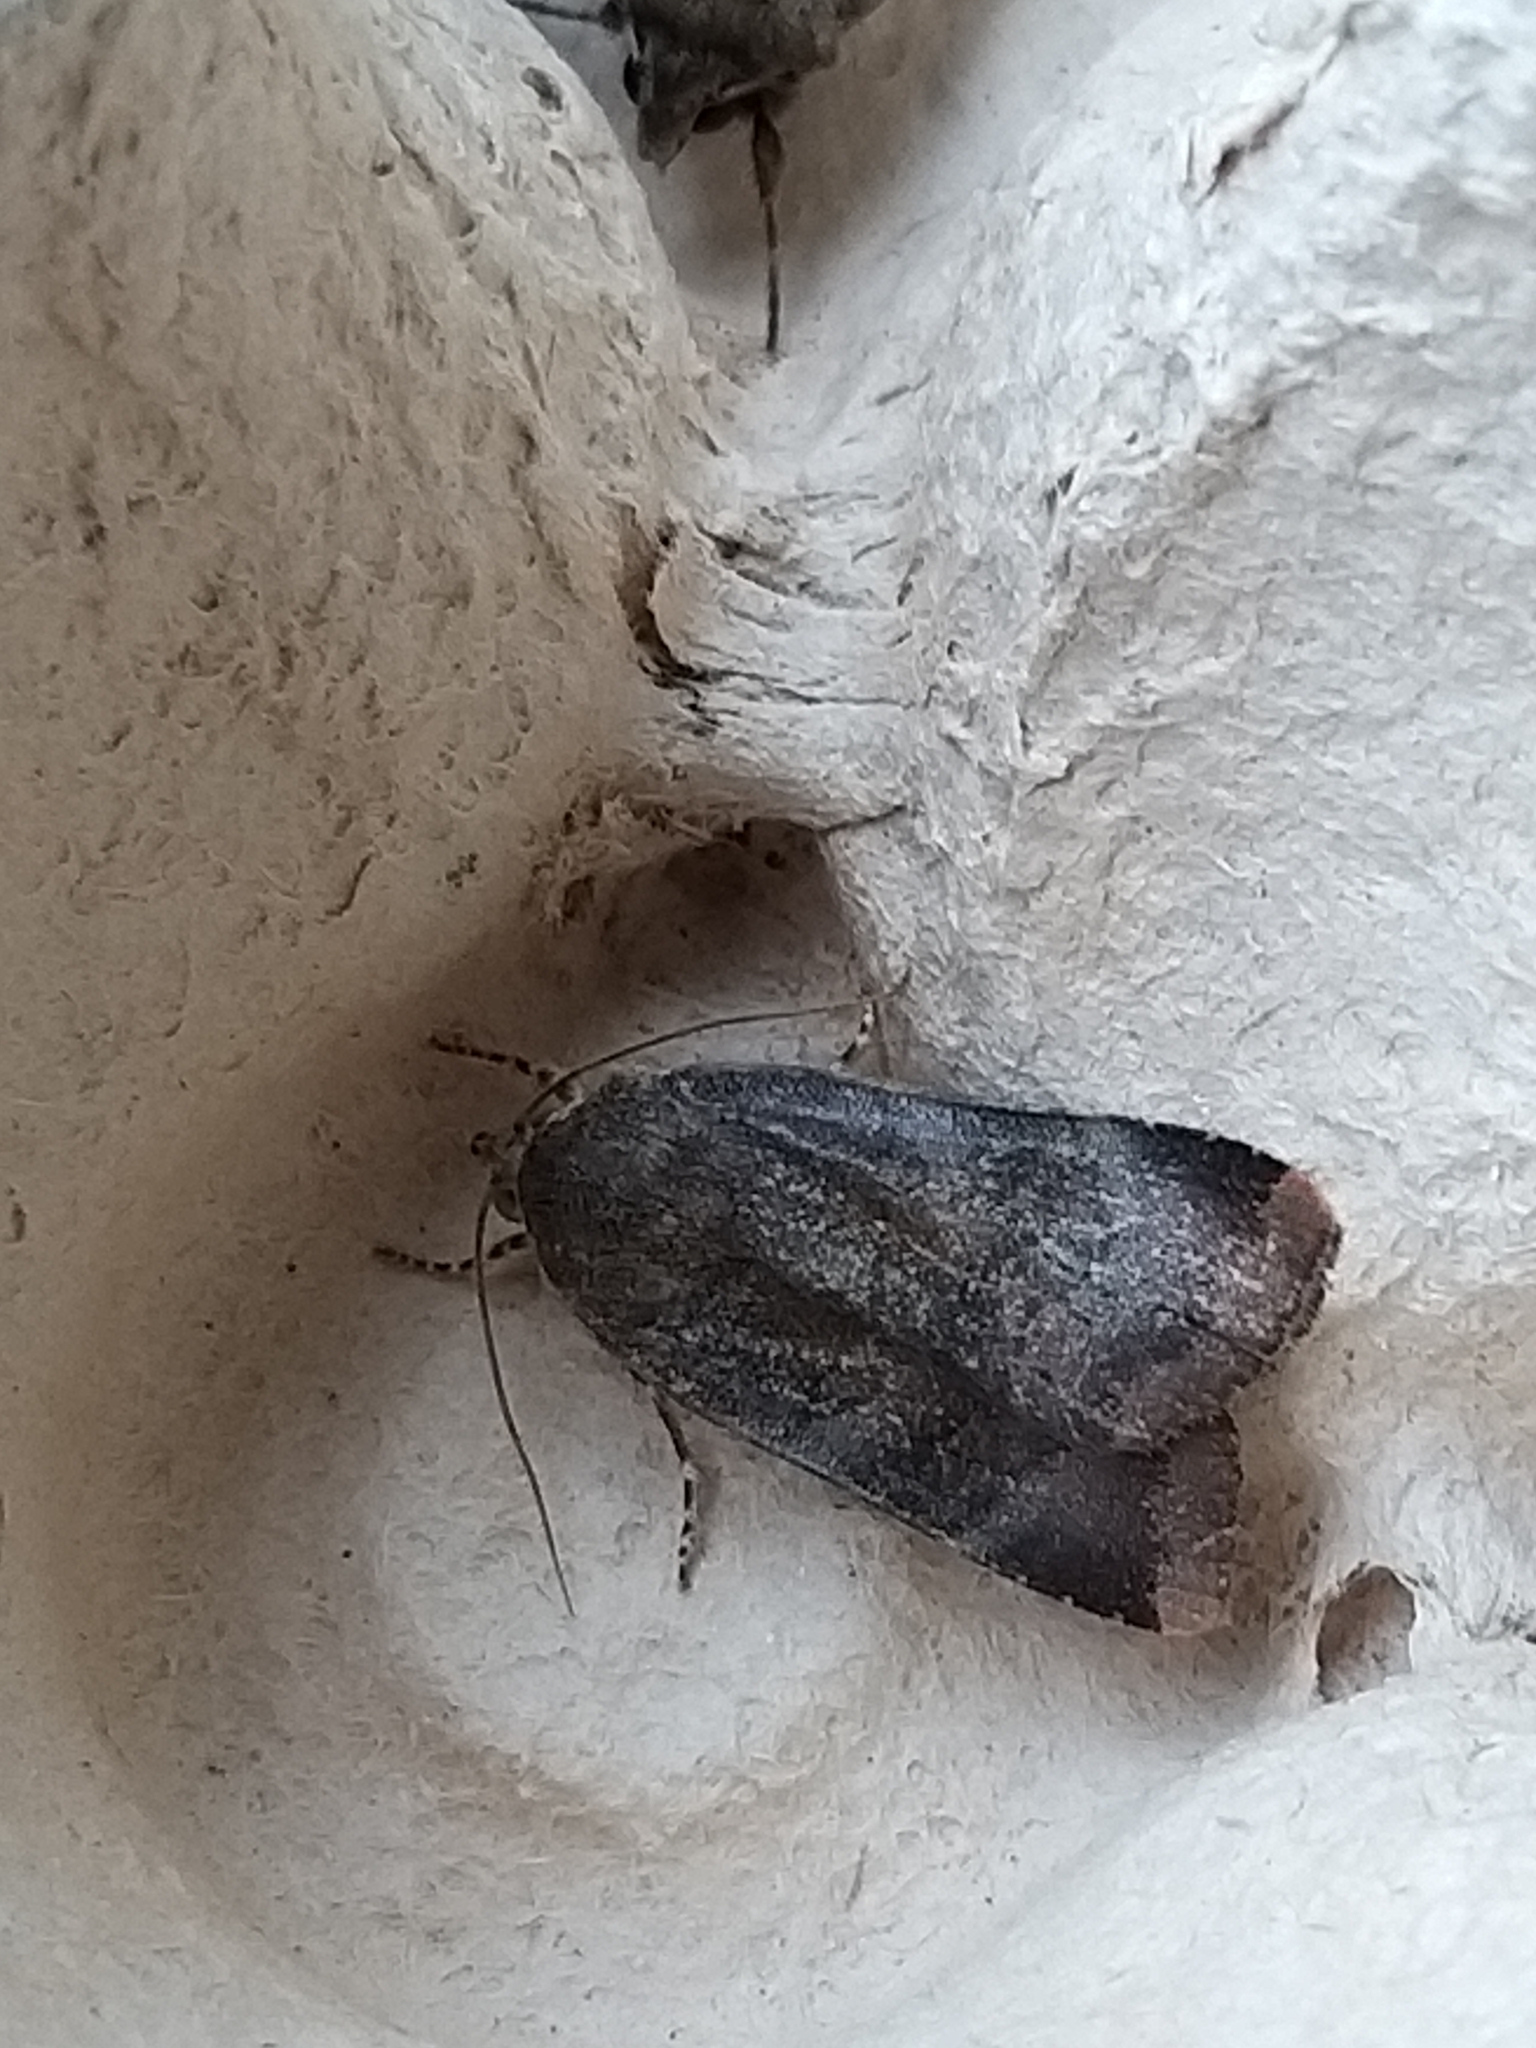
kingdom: Animalia
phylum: Arthropoda
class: Insecta
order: Lepidoptera
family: Noctuidae
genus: Noctua
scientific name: Noctua janthe
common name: Lesser broad-bordered yellow underwing
